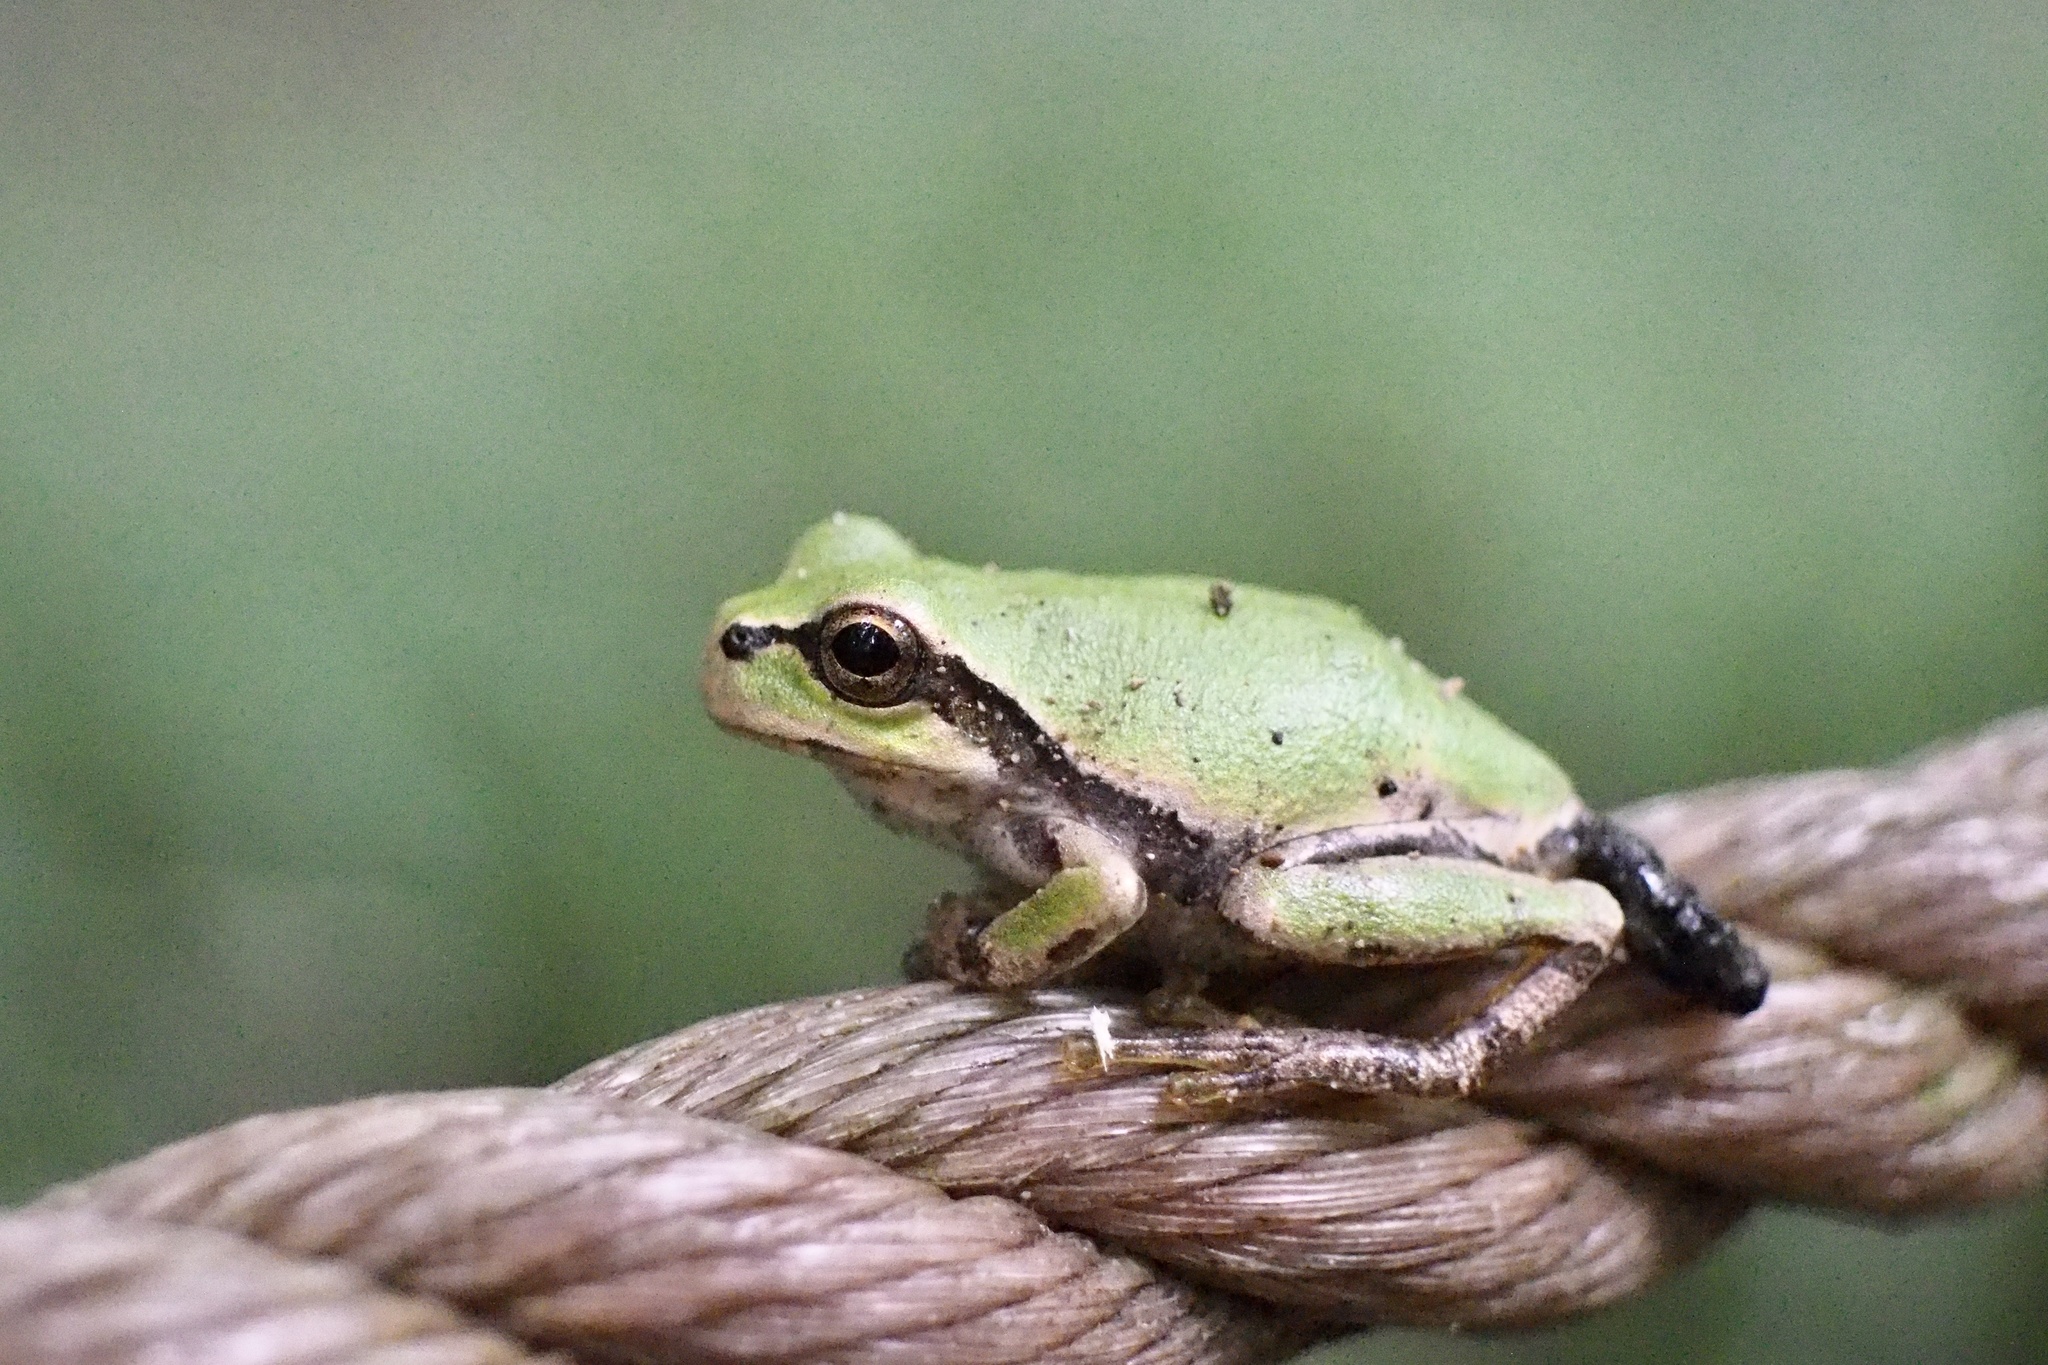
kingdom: Animalia
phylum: Chordata
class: Amphibia
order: Anura
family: Hylidae
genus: Dryophytes
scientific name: Dryophytes japonicus
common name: Japanese treefrog
